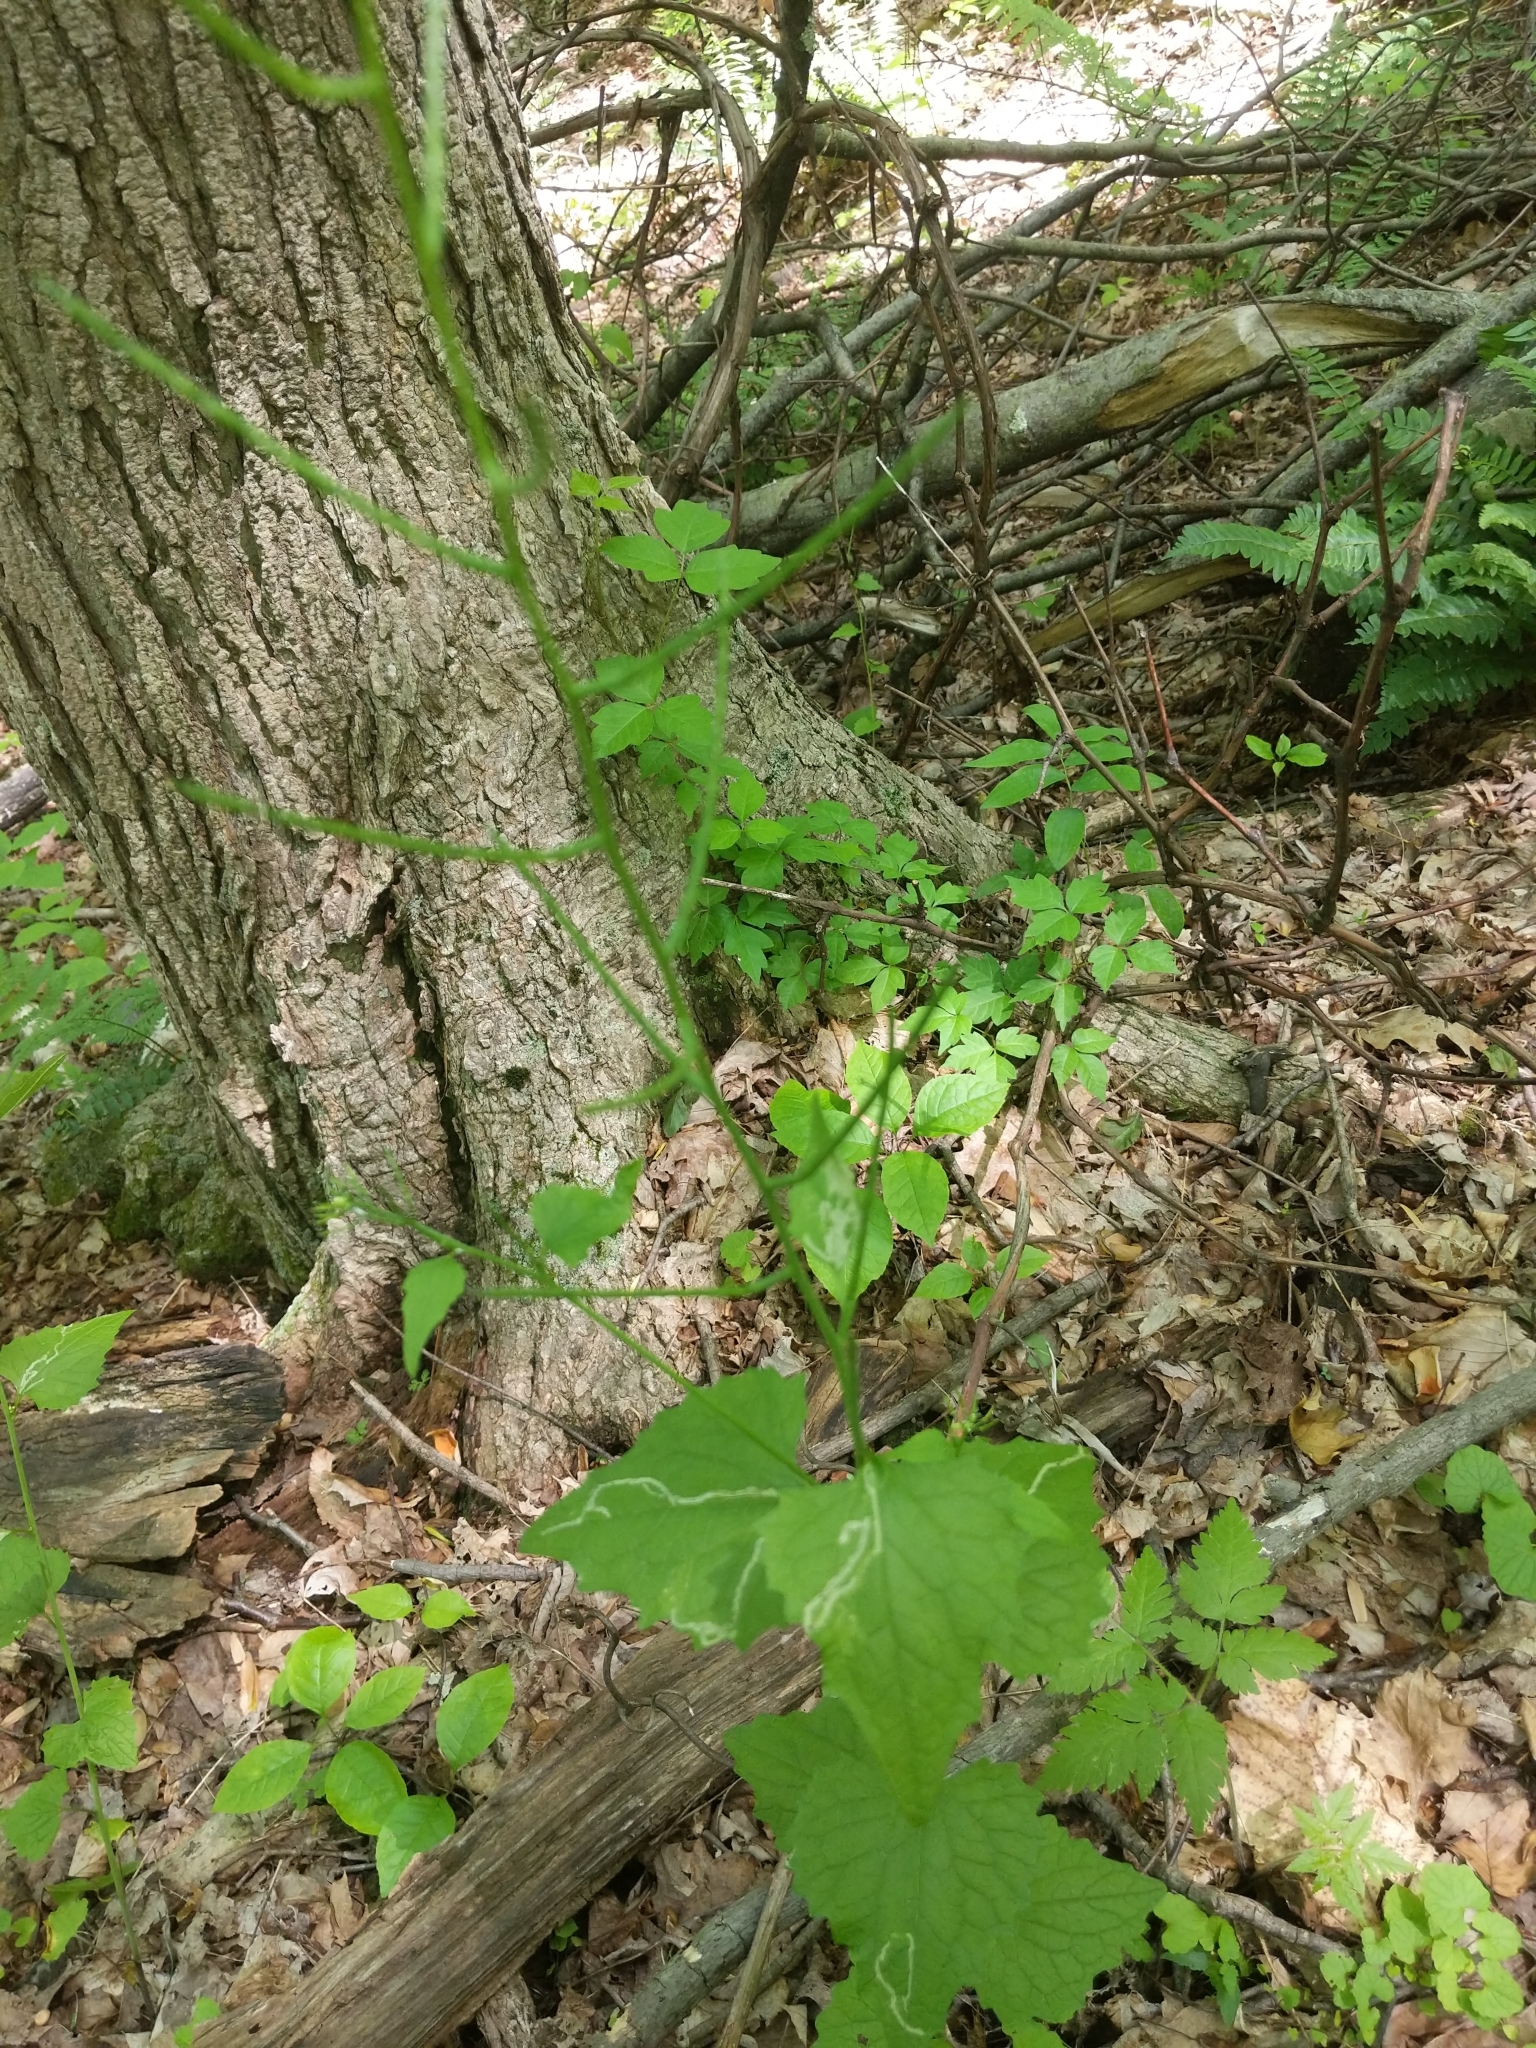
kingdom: Plantae
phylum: Tracheophyta
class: Magnoliopsida
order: Brassicales
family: Brassicaceae
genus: Alliaria
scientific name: Alliaria petiolata
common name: Garlic mustard
